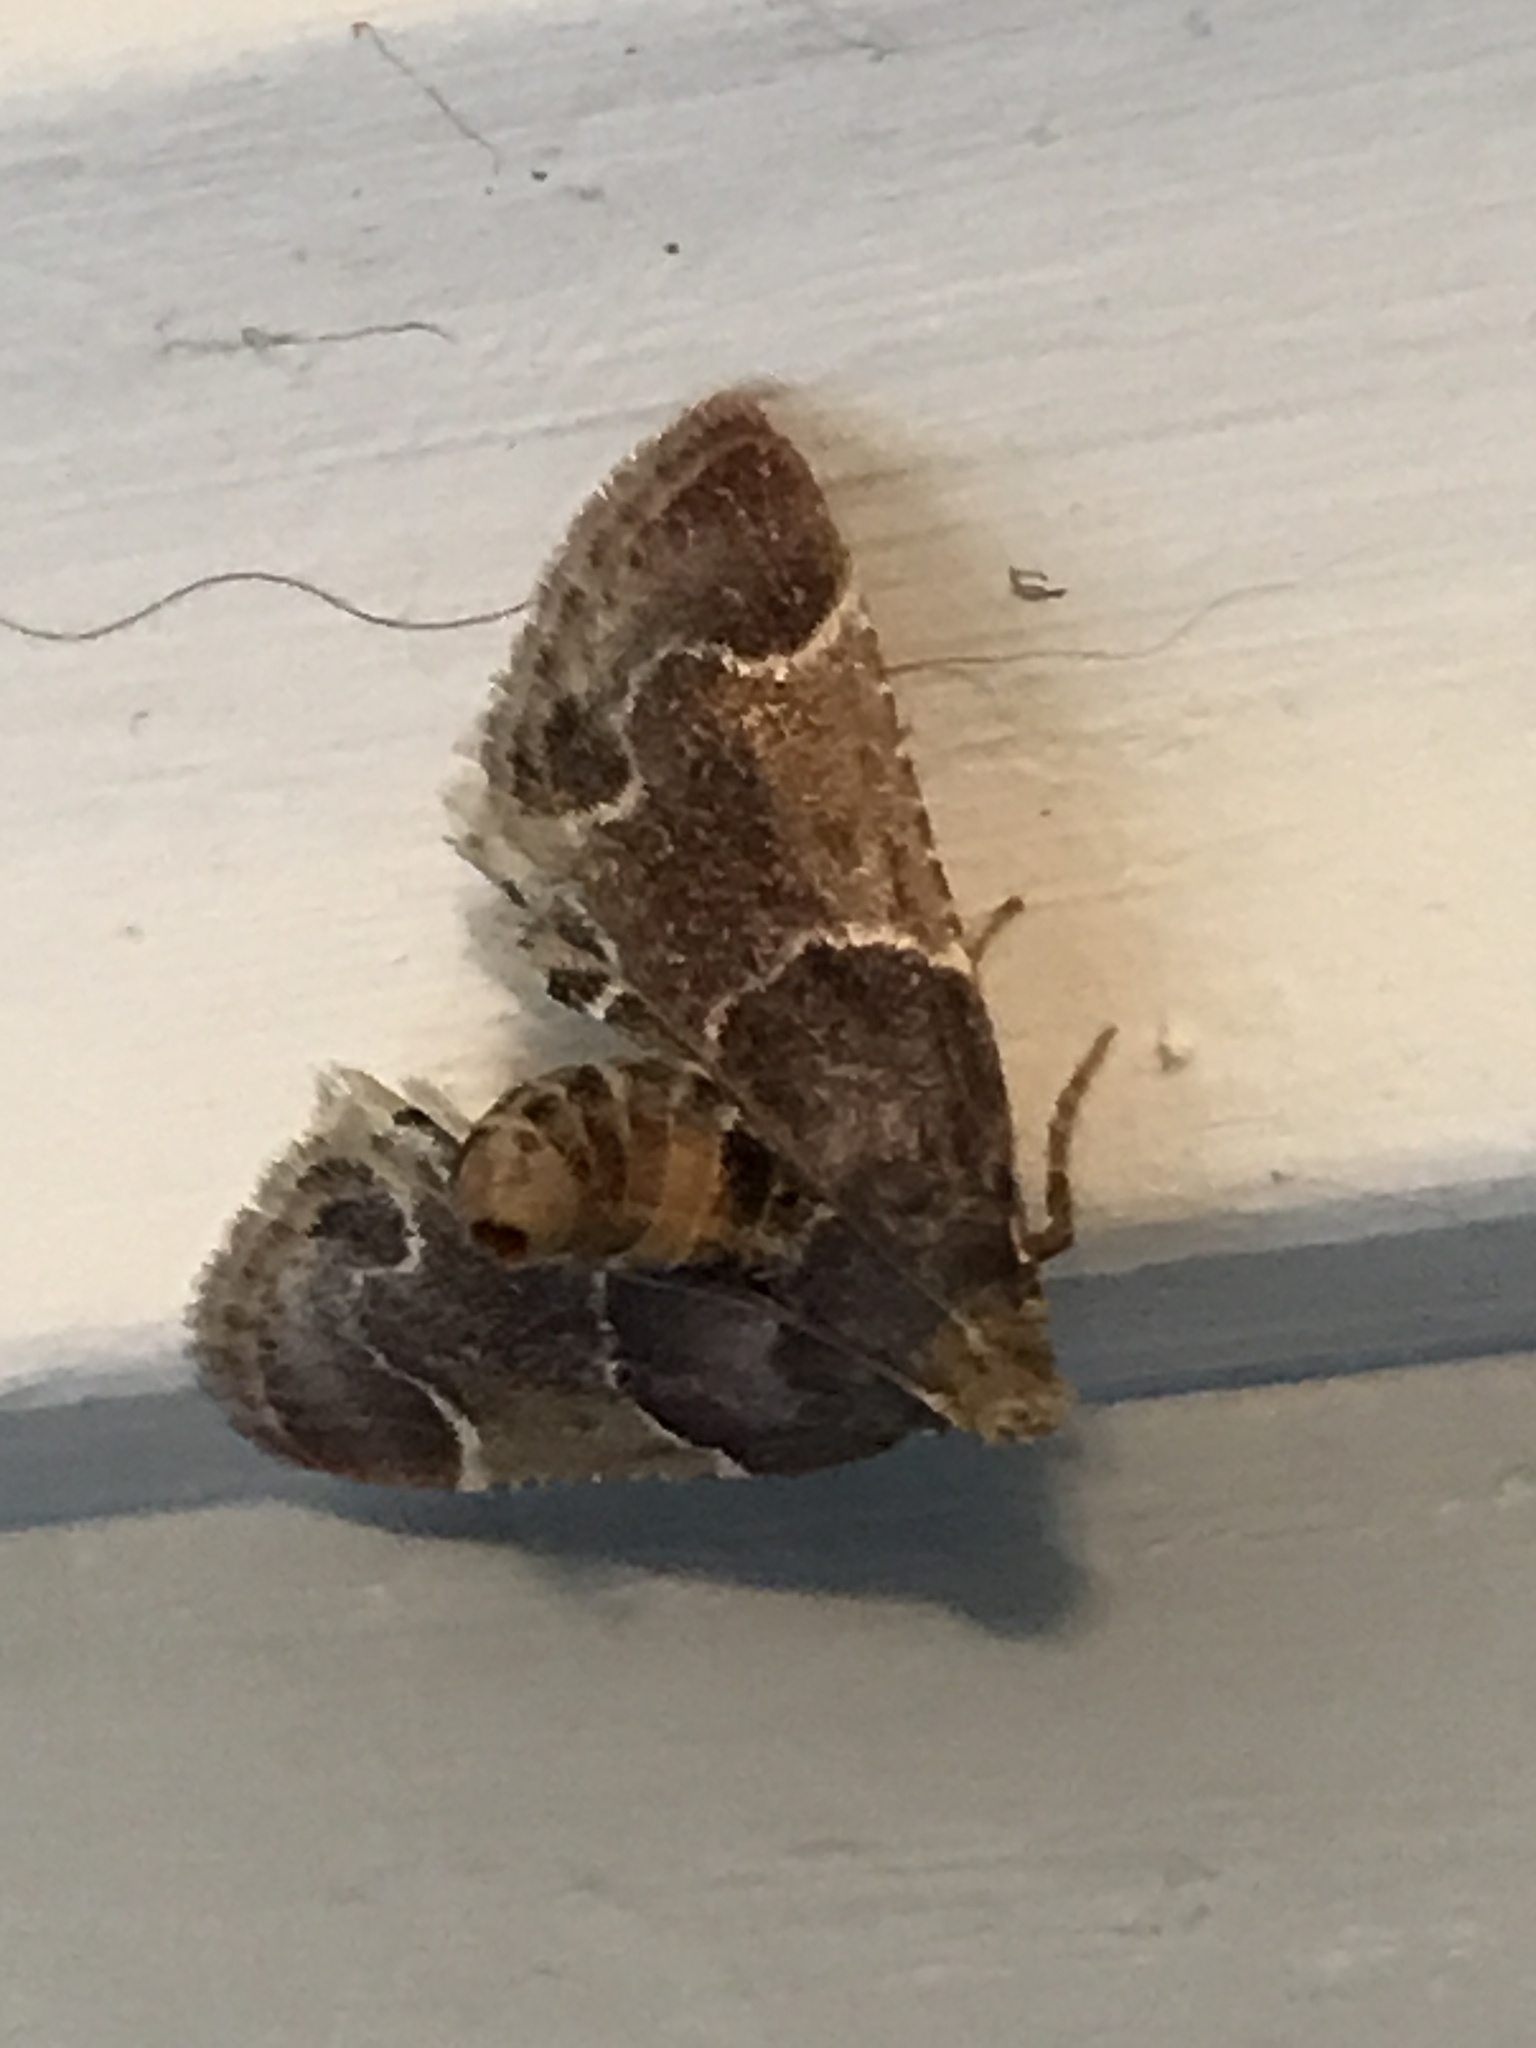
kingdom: Animalia
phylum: Arthropoda
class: Insecta
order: Lepidoptera
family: Pyralidae
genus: Pyralis
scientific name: Pyralis farinalis
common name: Meal moth
